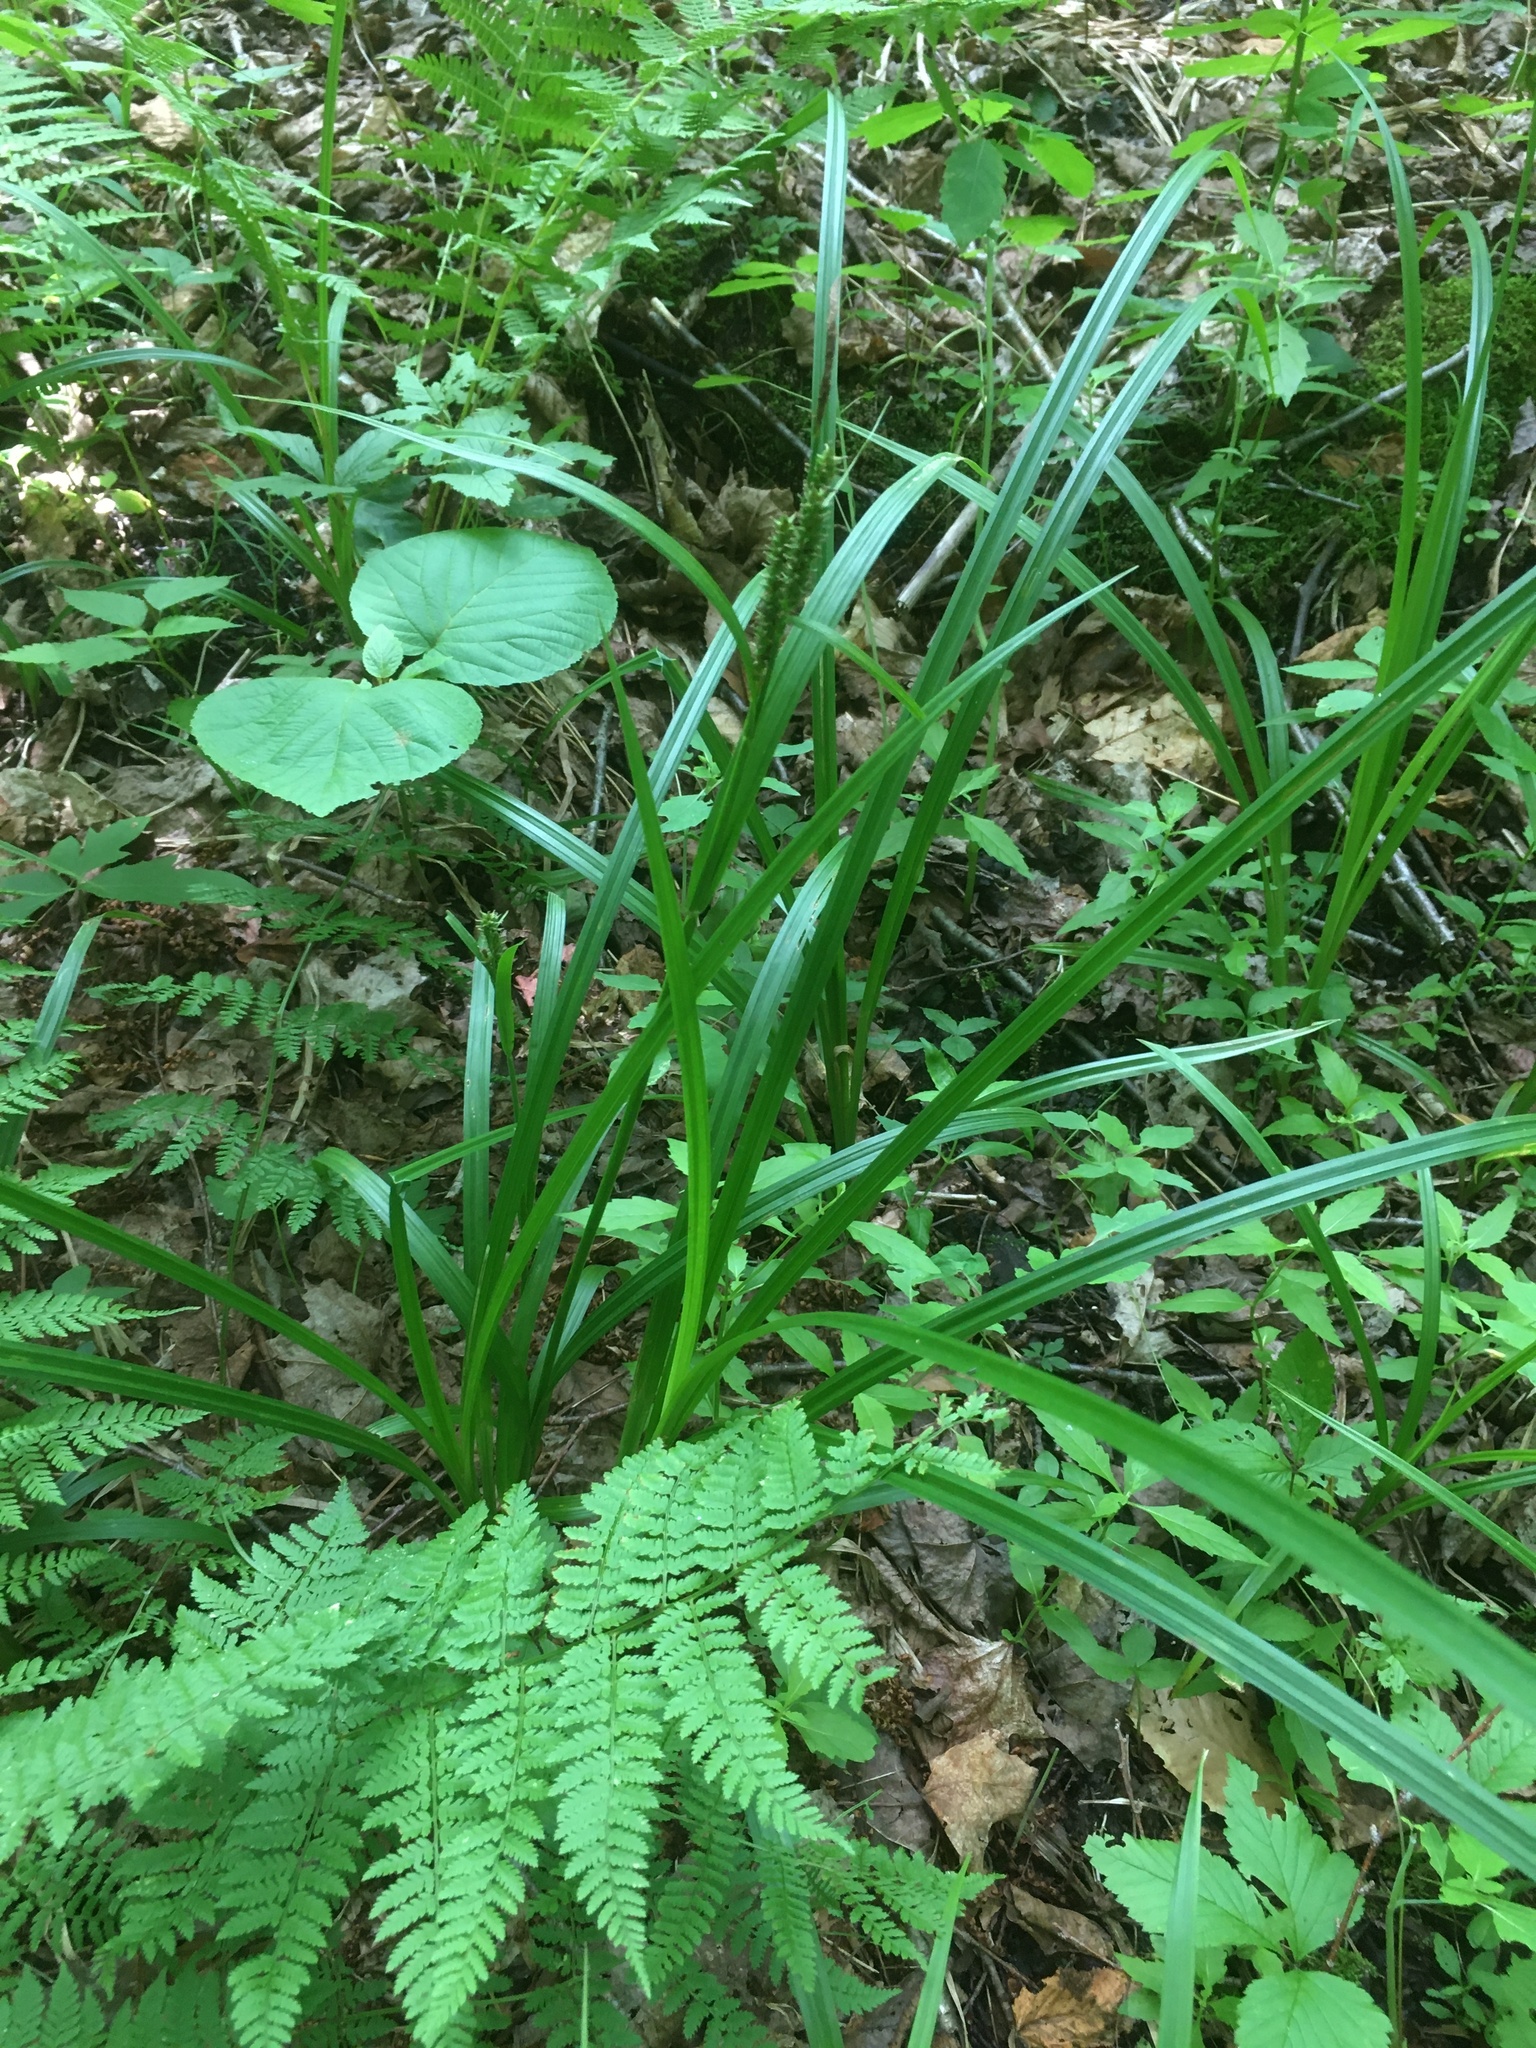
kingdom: Plantae
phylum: Tracheophyta
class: Liliopsida
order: Poales
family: Cyperaceae
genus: Carex
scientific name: Carex scabrata
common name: Eastern rough sedge
